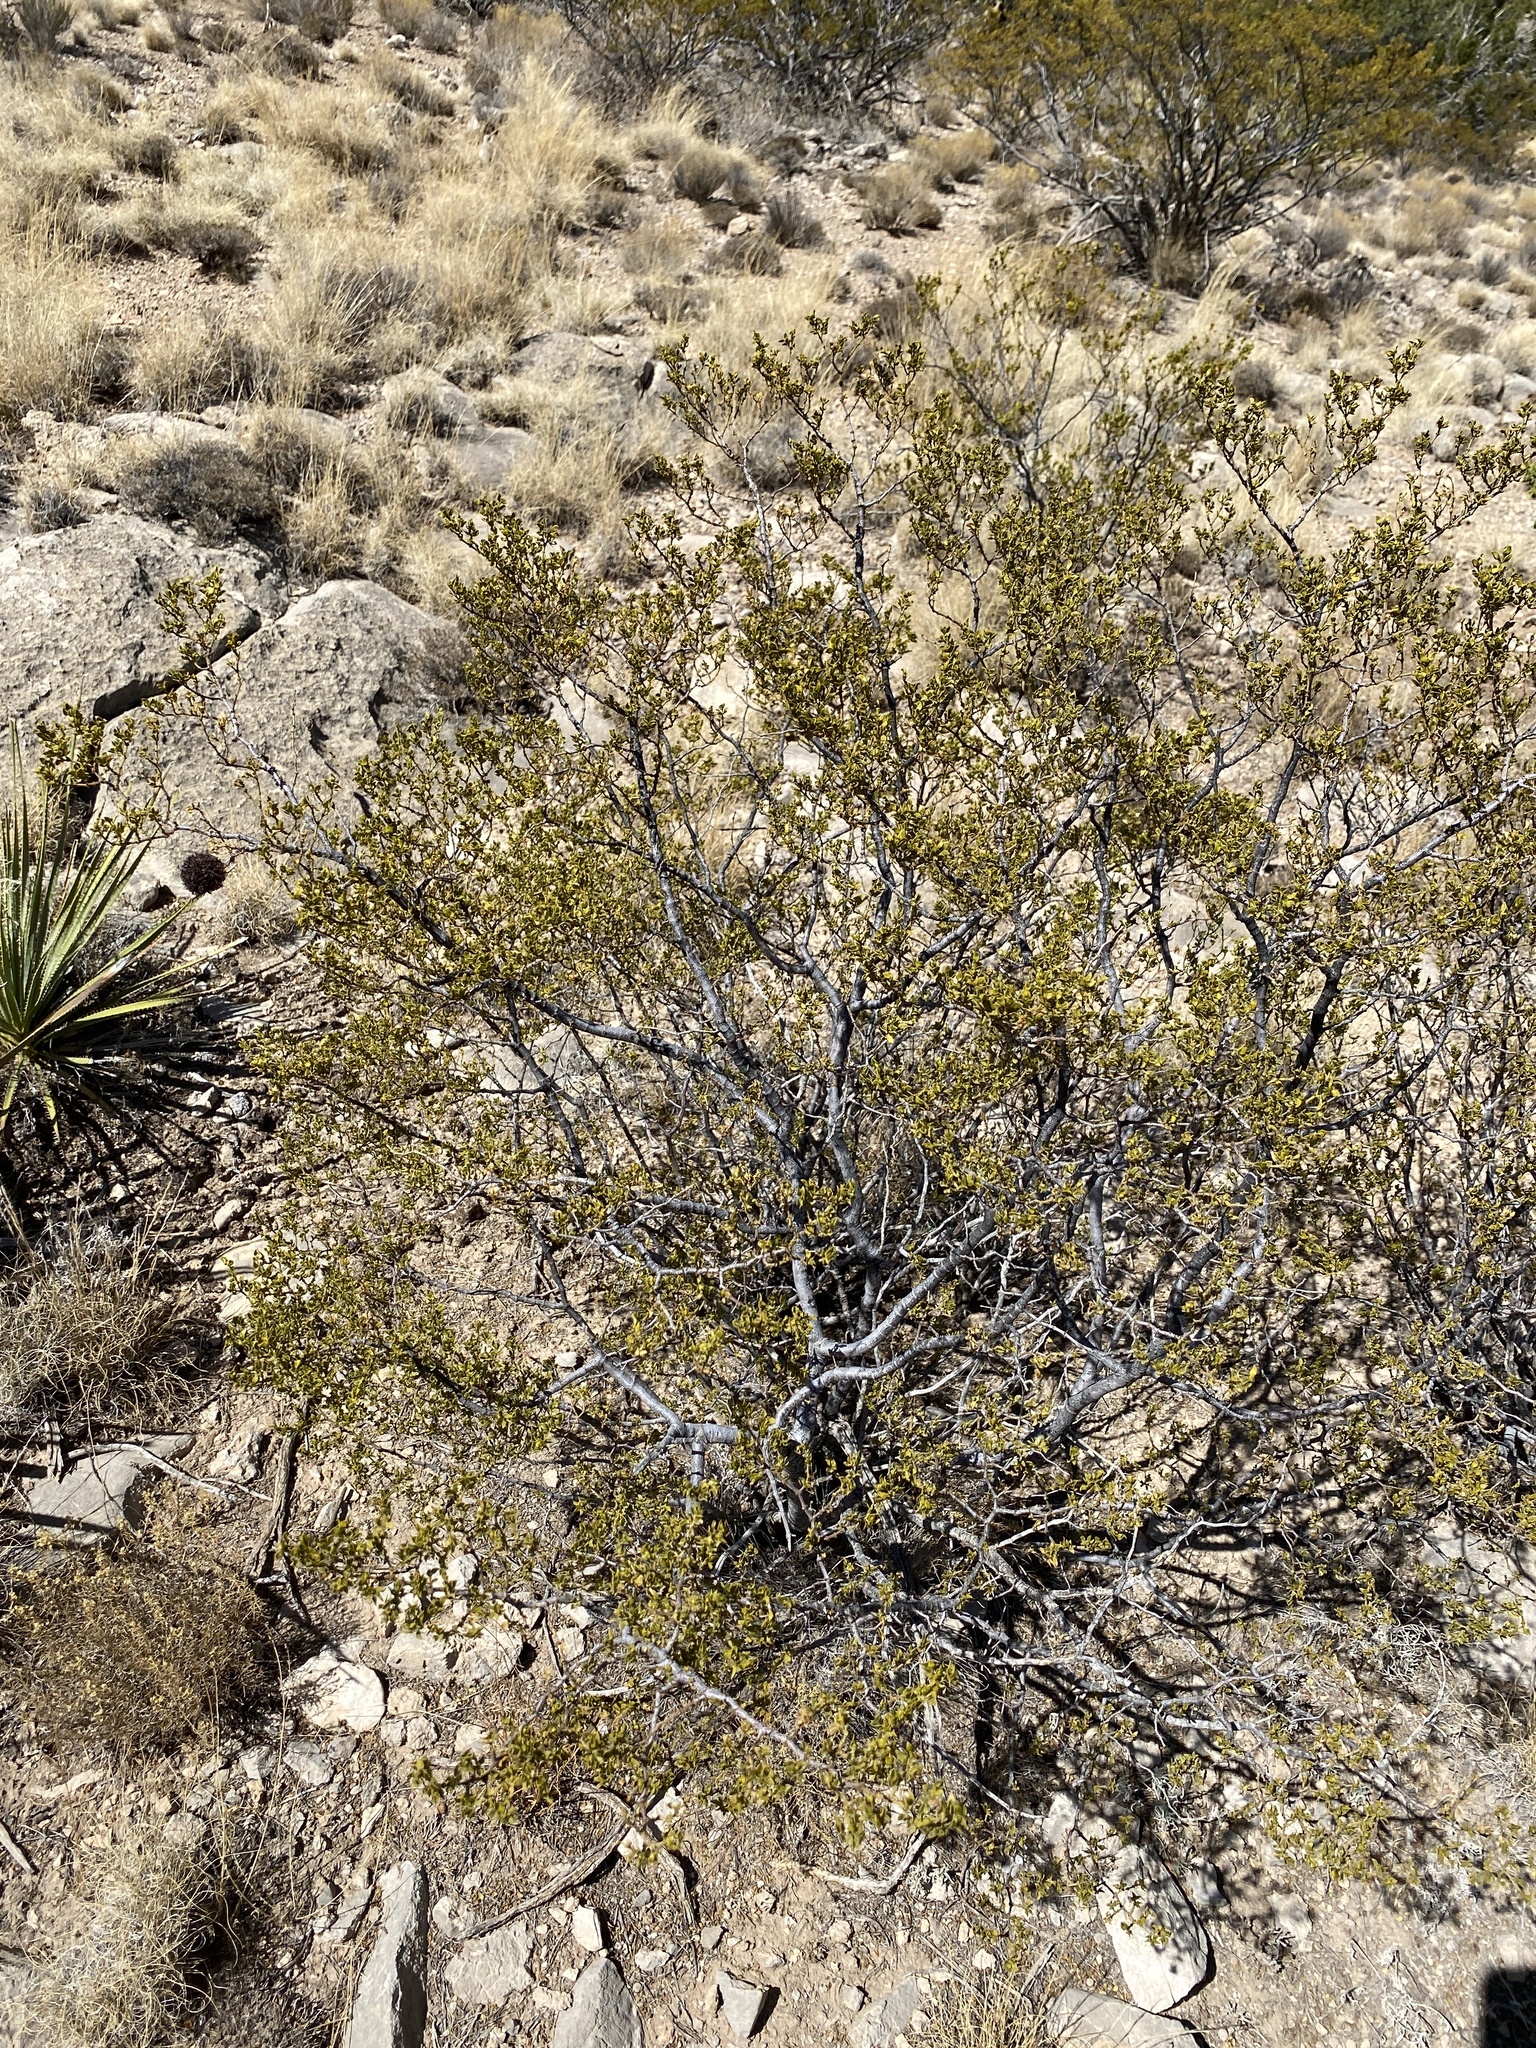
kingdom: Plantae
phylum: Tracheophyta
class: Magnoliopsida
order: Zygophyllales
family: Zygophyllaceae
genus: Larrea
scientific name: Larrea tridentata
